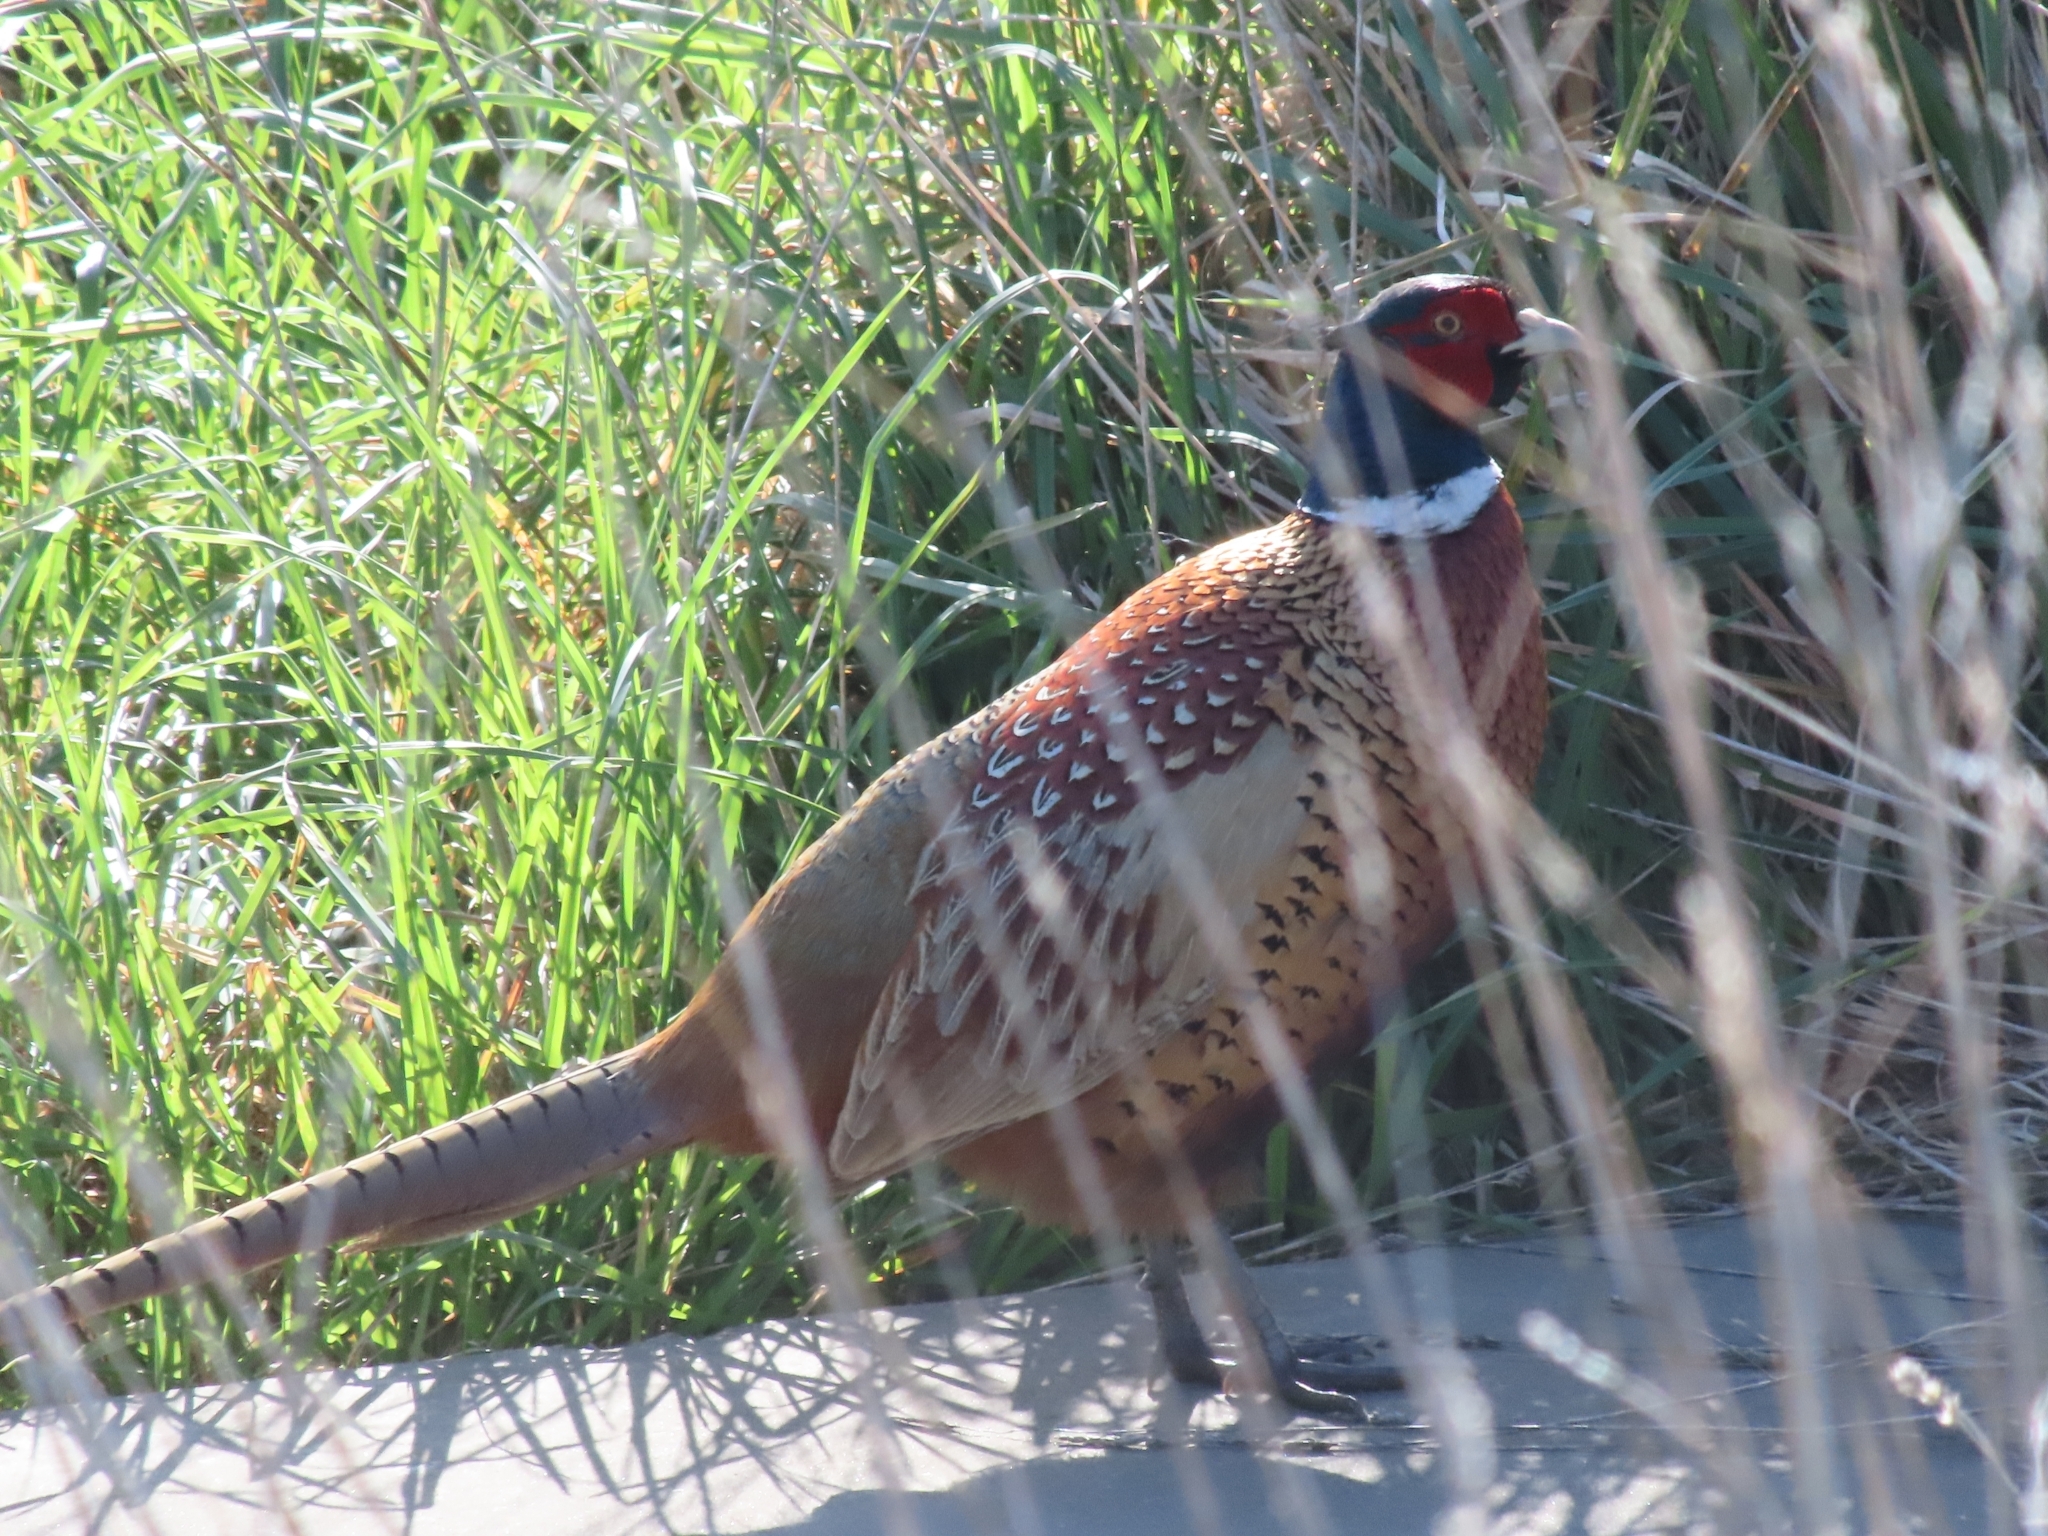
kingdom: Animalia
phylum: Chordata
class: Aves
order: Galliformes
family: Phasianidae
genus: Phasianus
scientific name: Phasianus colchicus
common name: Common pheasant
